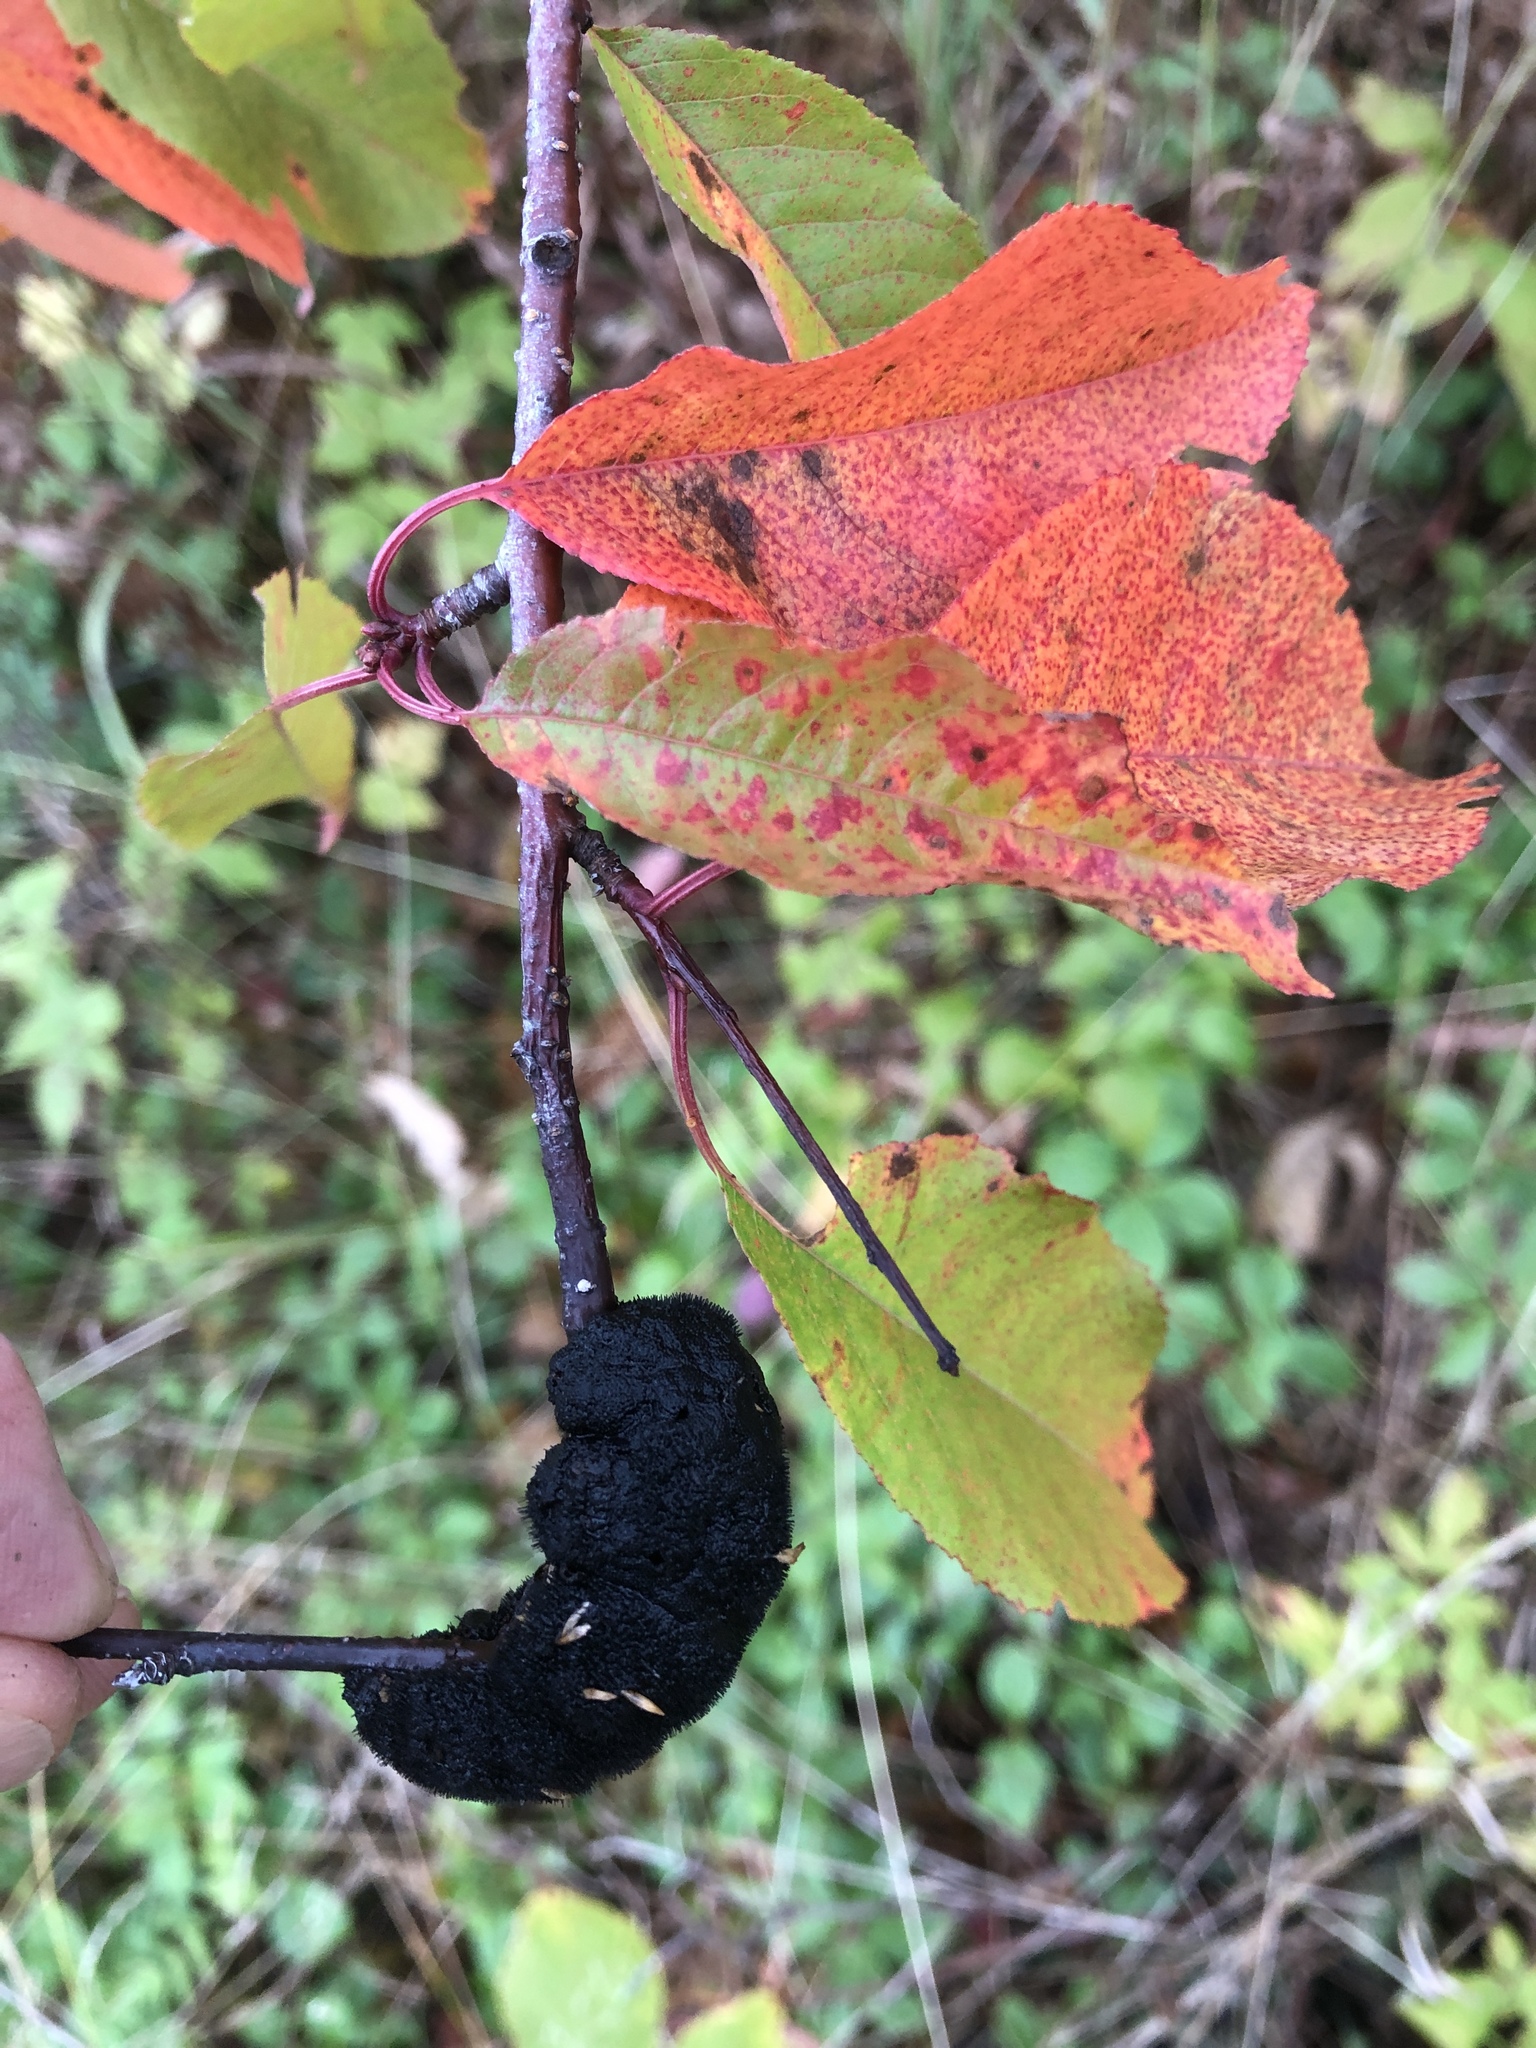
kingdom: Fungi
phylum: Ascomycota
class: Dothideomycetes
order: Venturiales
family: Venturiaceae
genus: Apiosporina
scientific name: Apiosporina morbosa
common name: Black knot
